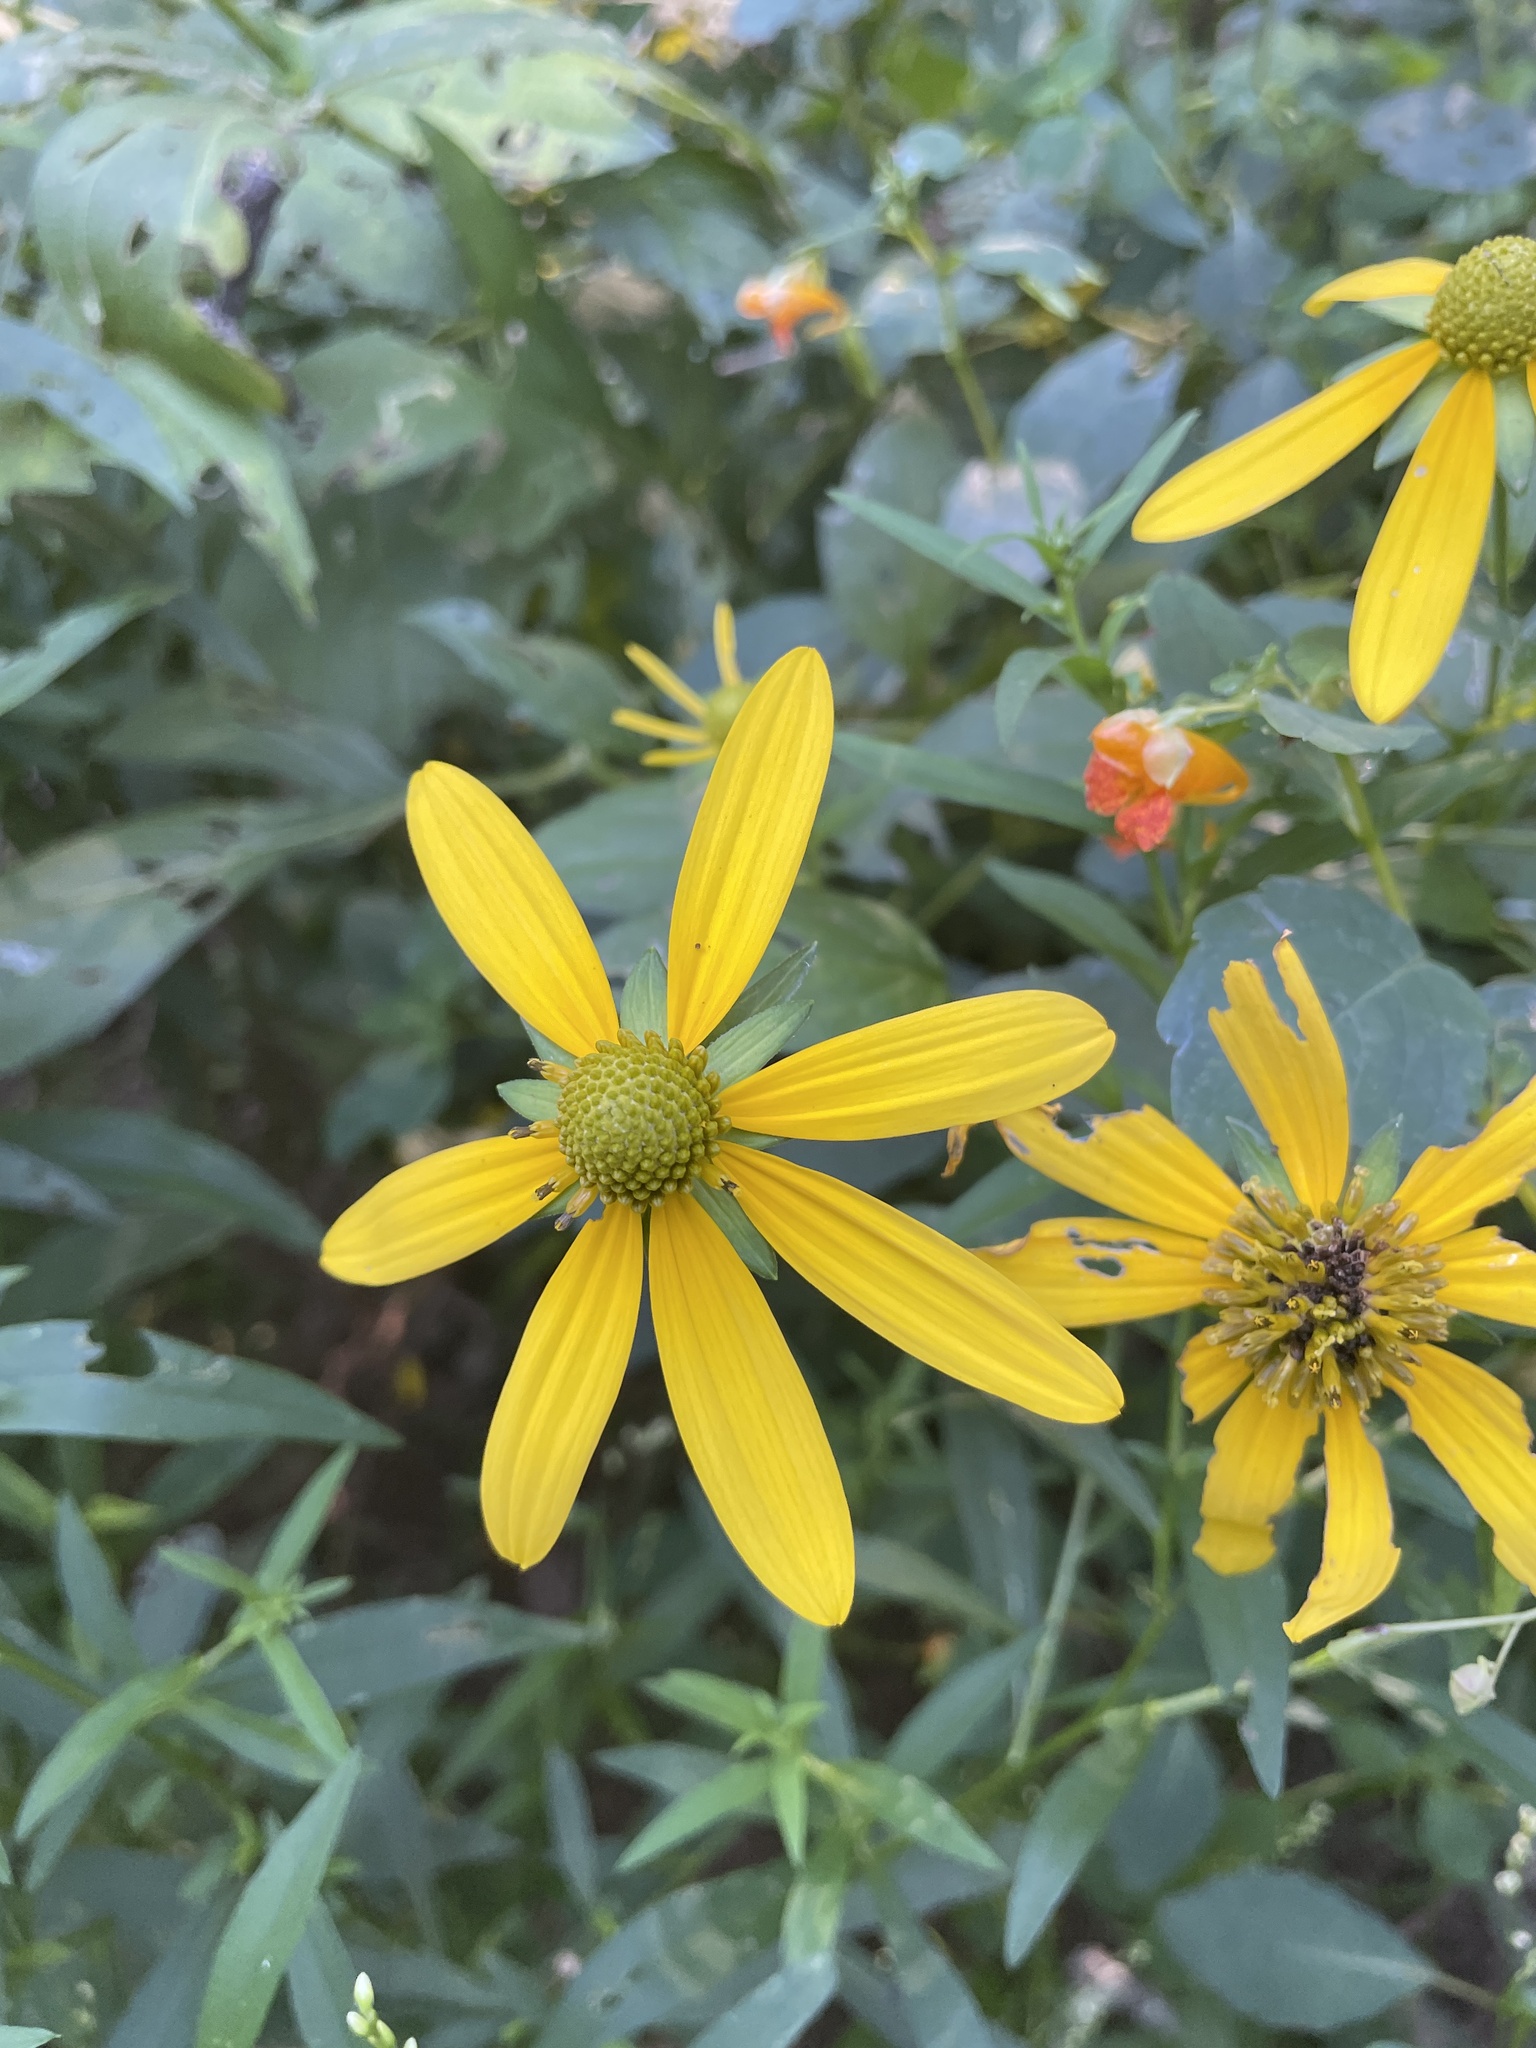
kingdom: Plantae
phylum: Tracheophyta
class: Magnoliopsida
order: Asterales
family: Asteraceae
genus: Rudbeckia
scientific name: Rudbeckia laciniata
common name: Coneflower
